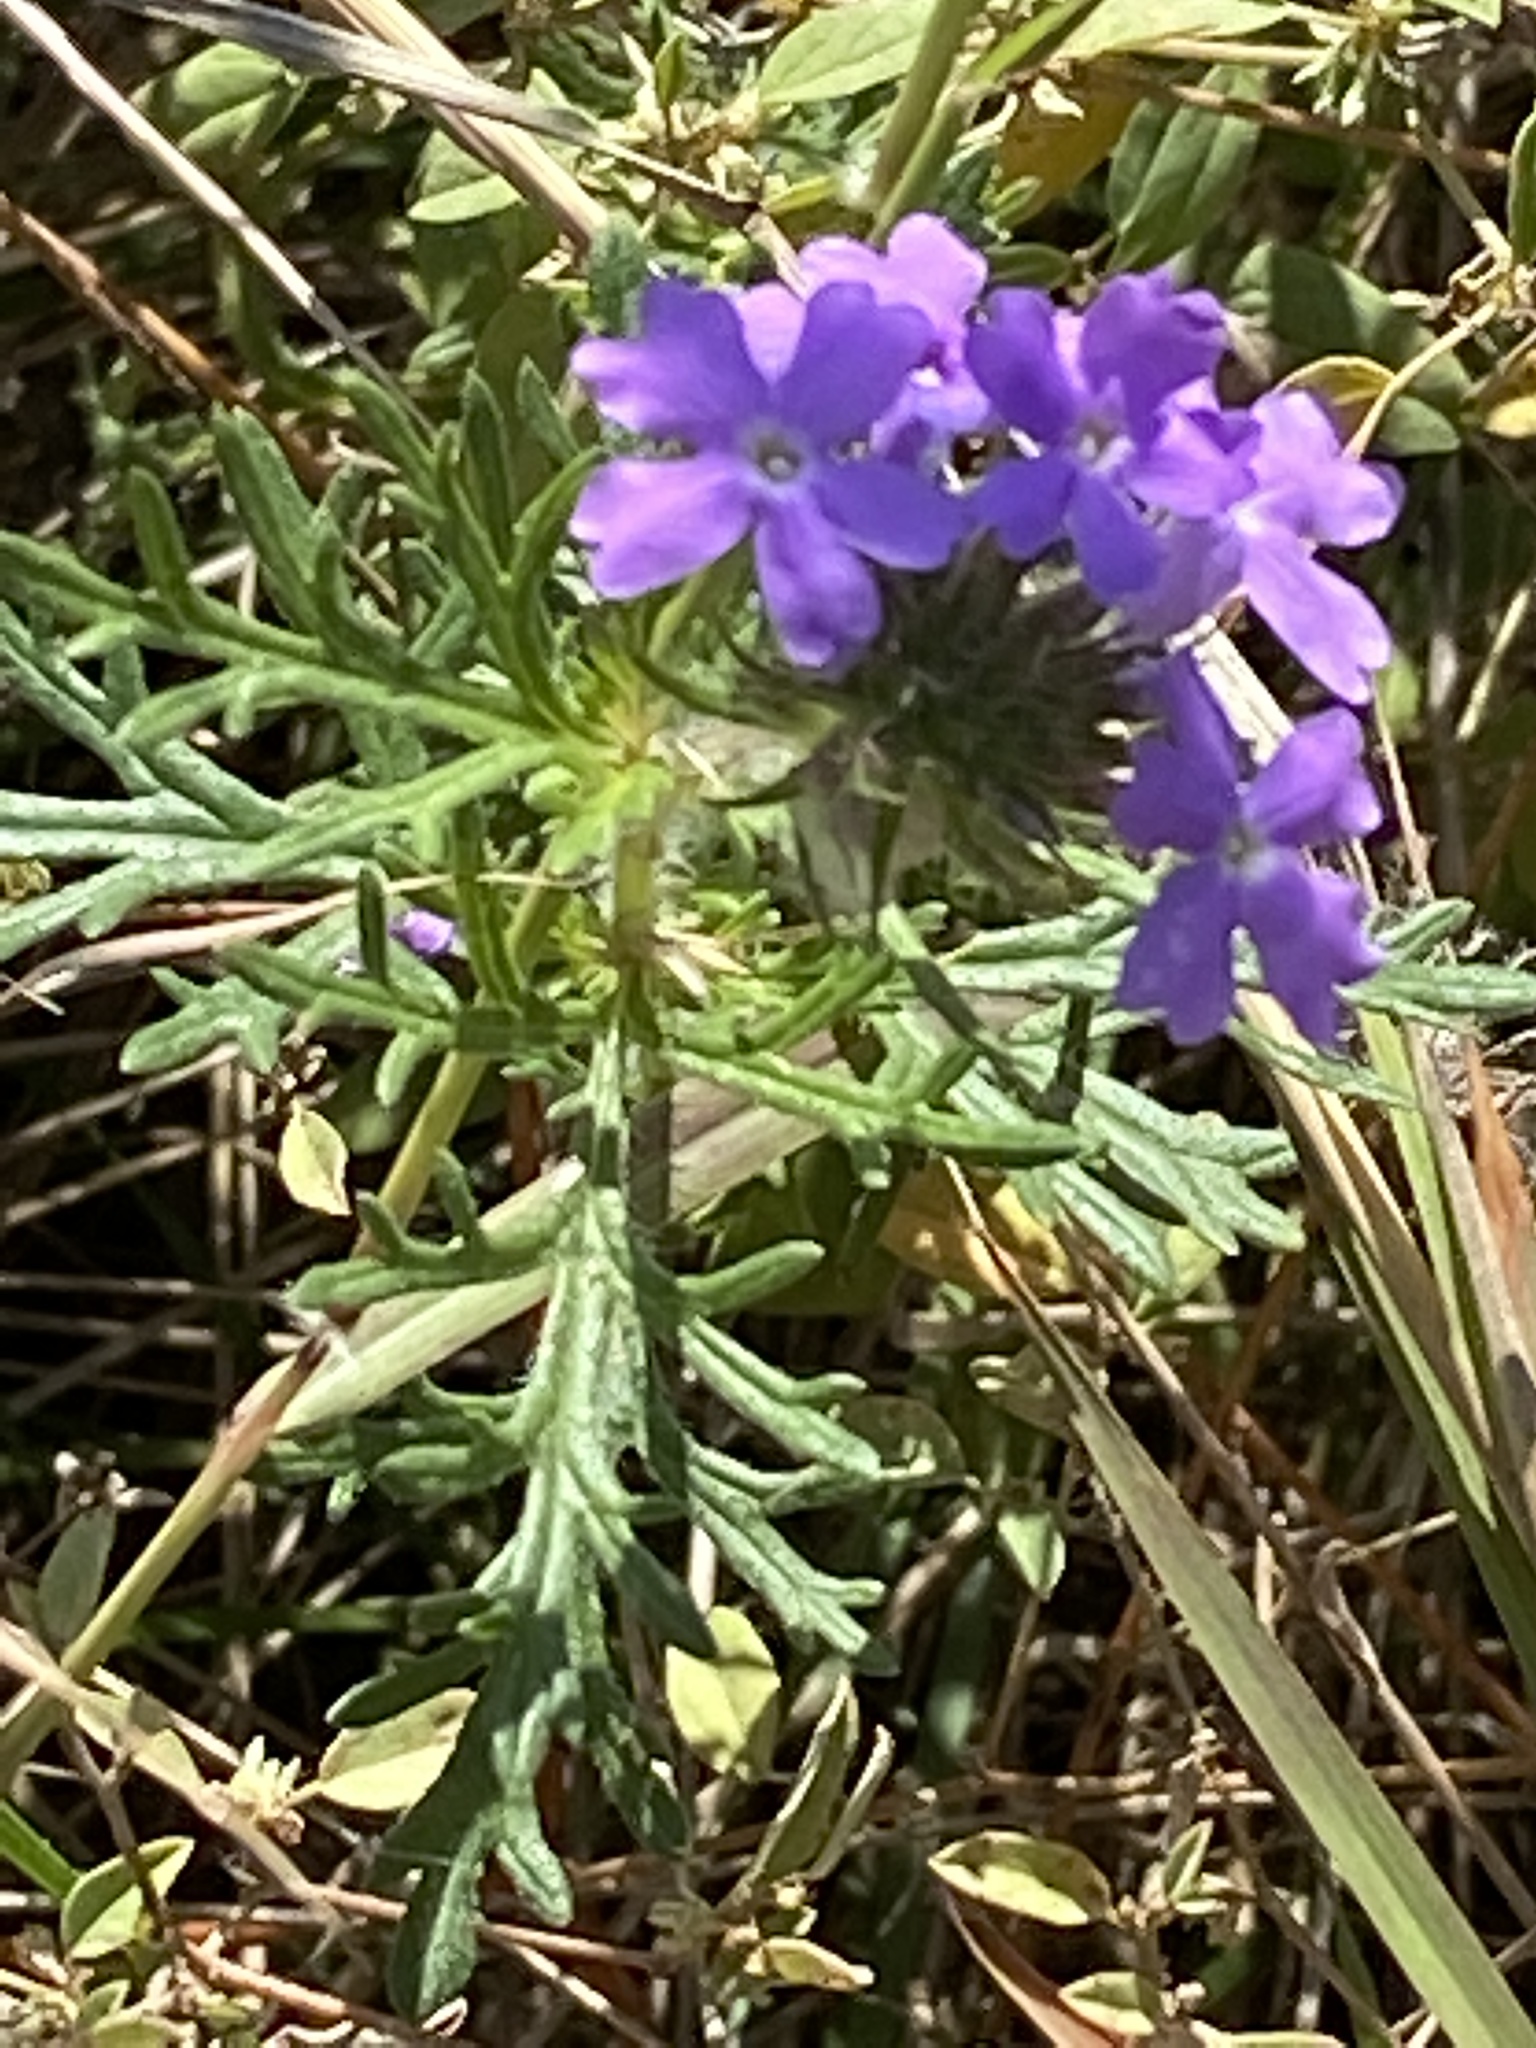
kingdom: Plantae
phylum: Tracheophyta
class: Magnoliopsida
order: Lamiales
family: Verbenaceae
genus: Verbena
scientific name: Verbena bipinnatifida
